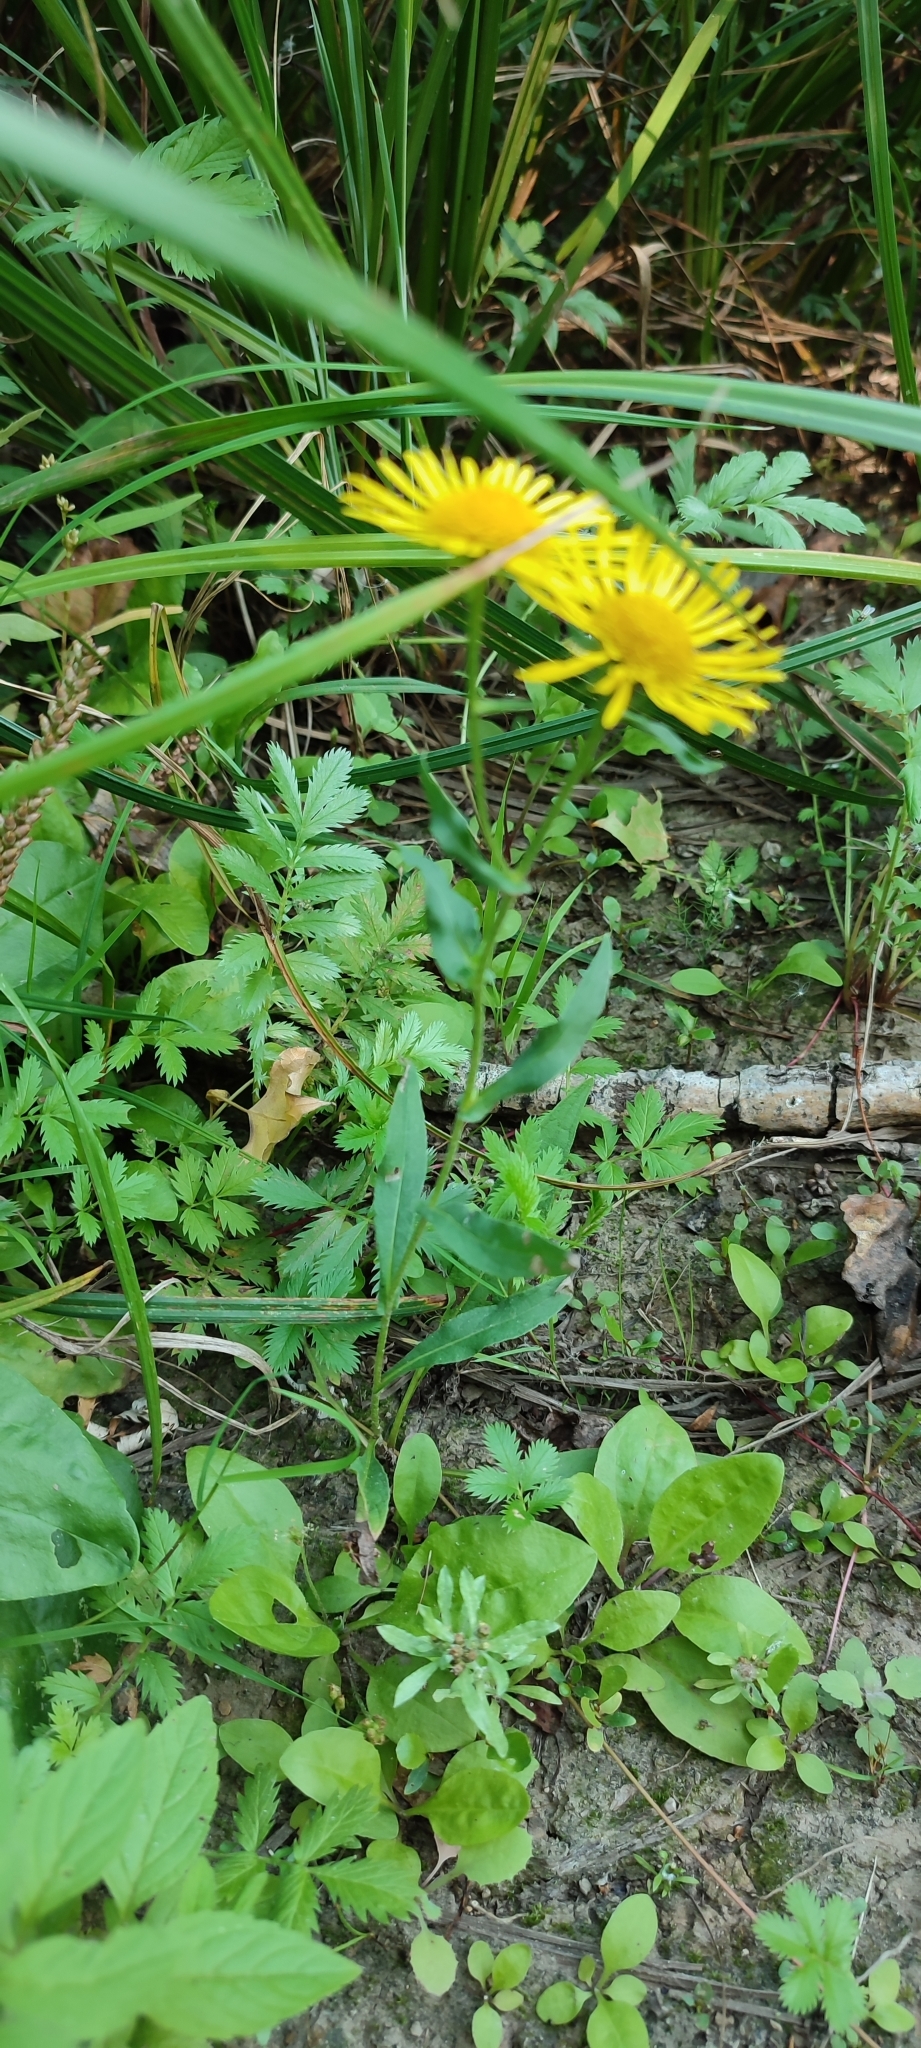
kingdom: Plantae
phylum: Tracheophyta
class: Magnoliopsida
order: Asterales
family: Asteraceae
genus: Pentanema
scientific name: Pentanema britannicum
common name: British elecampane
